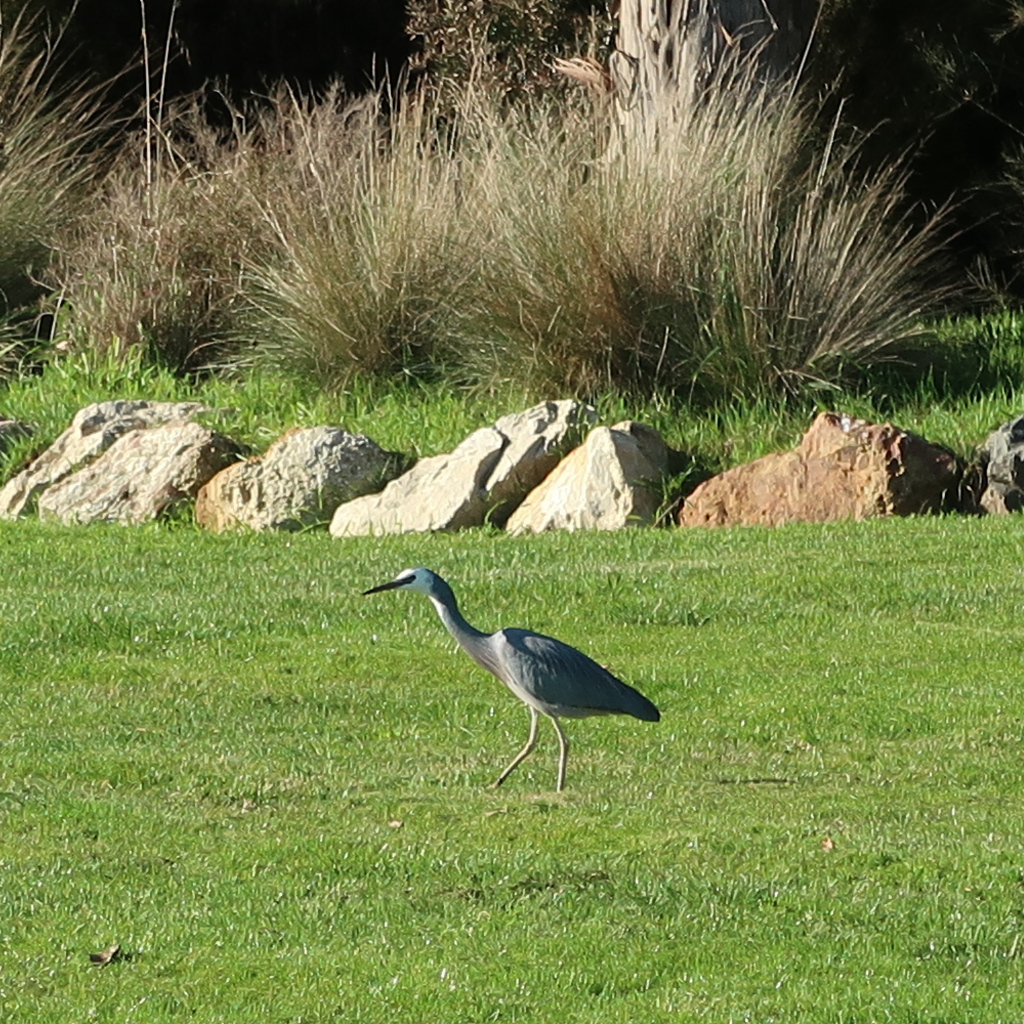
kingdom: Animalia
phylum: Chordata
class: Aves
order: Pelecaniformes
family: Ardeidae
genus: Egretta
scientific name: Egretta novaehollandiae
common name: White-faced heron
